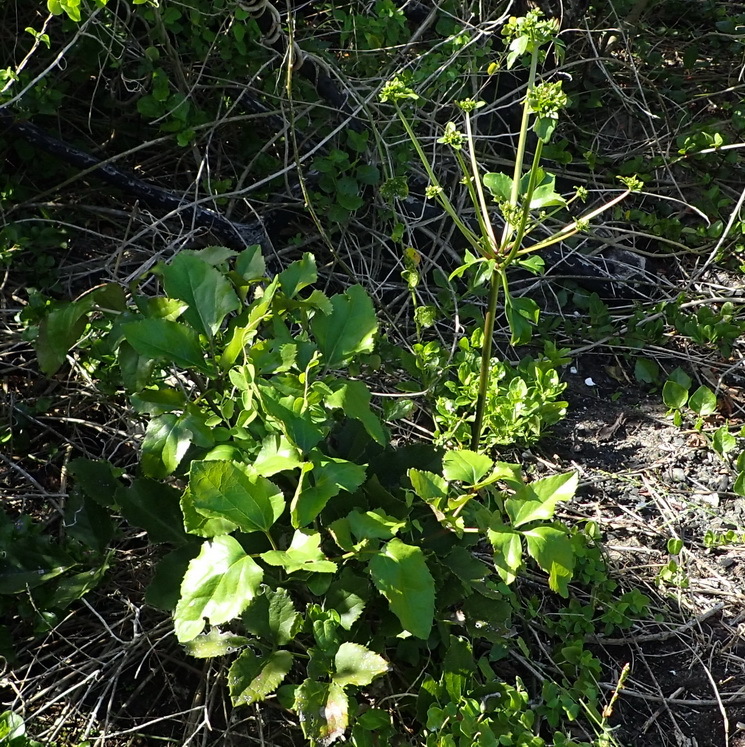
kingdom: Plantae
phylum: Tracheophyta
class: Magnoliopsida
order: Ranunculales
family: Ranunculaceae
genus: Knowltonia
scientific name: Knowltonia vesicatoria
